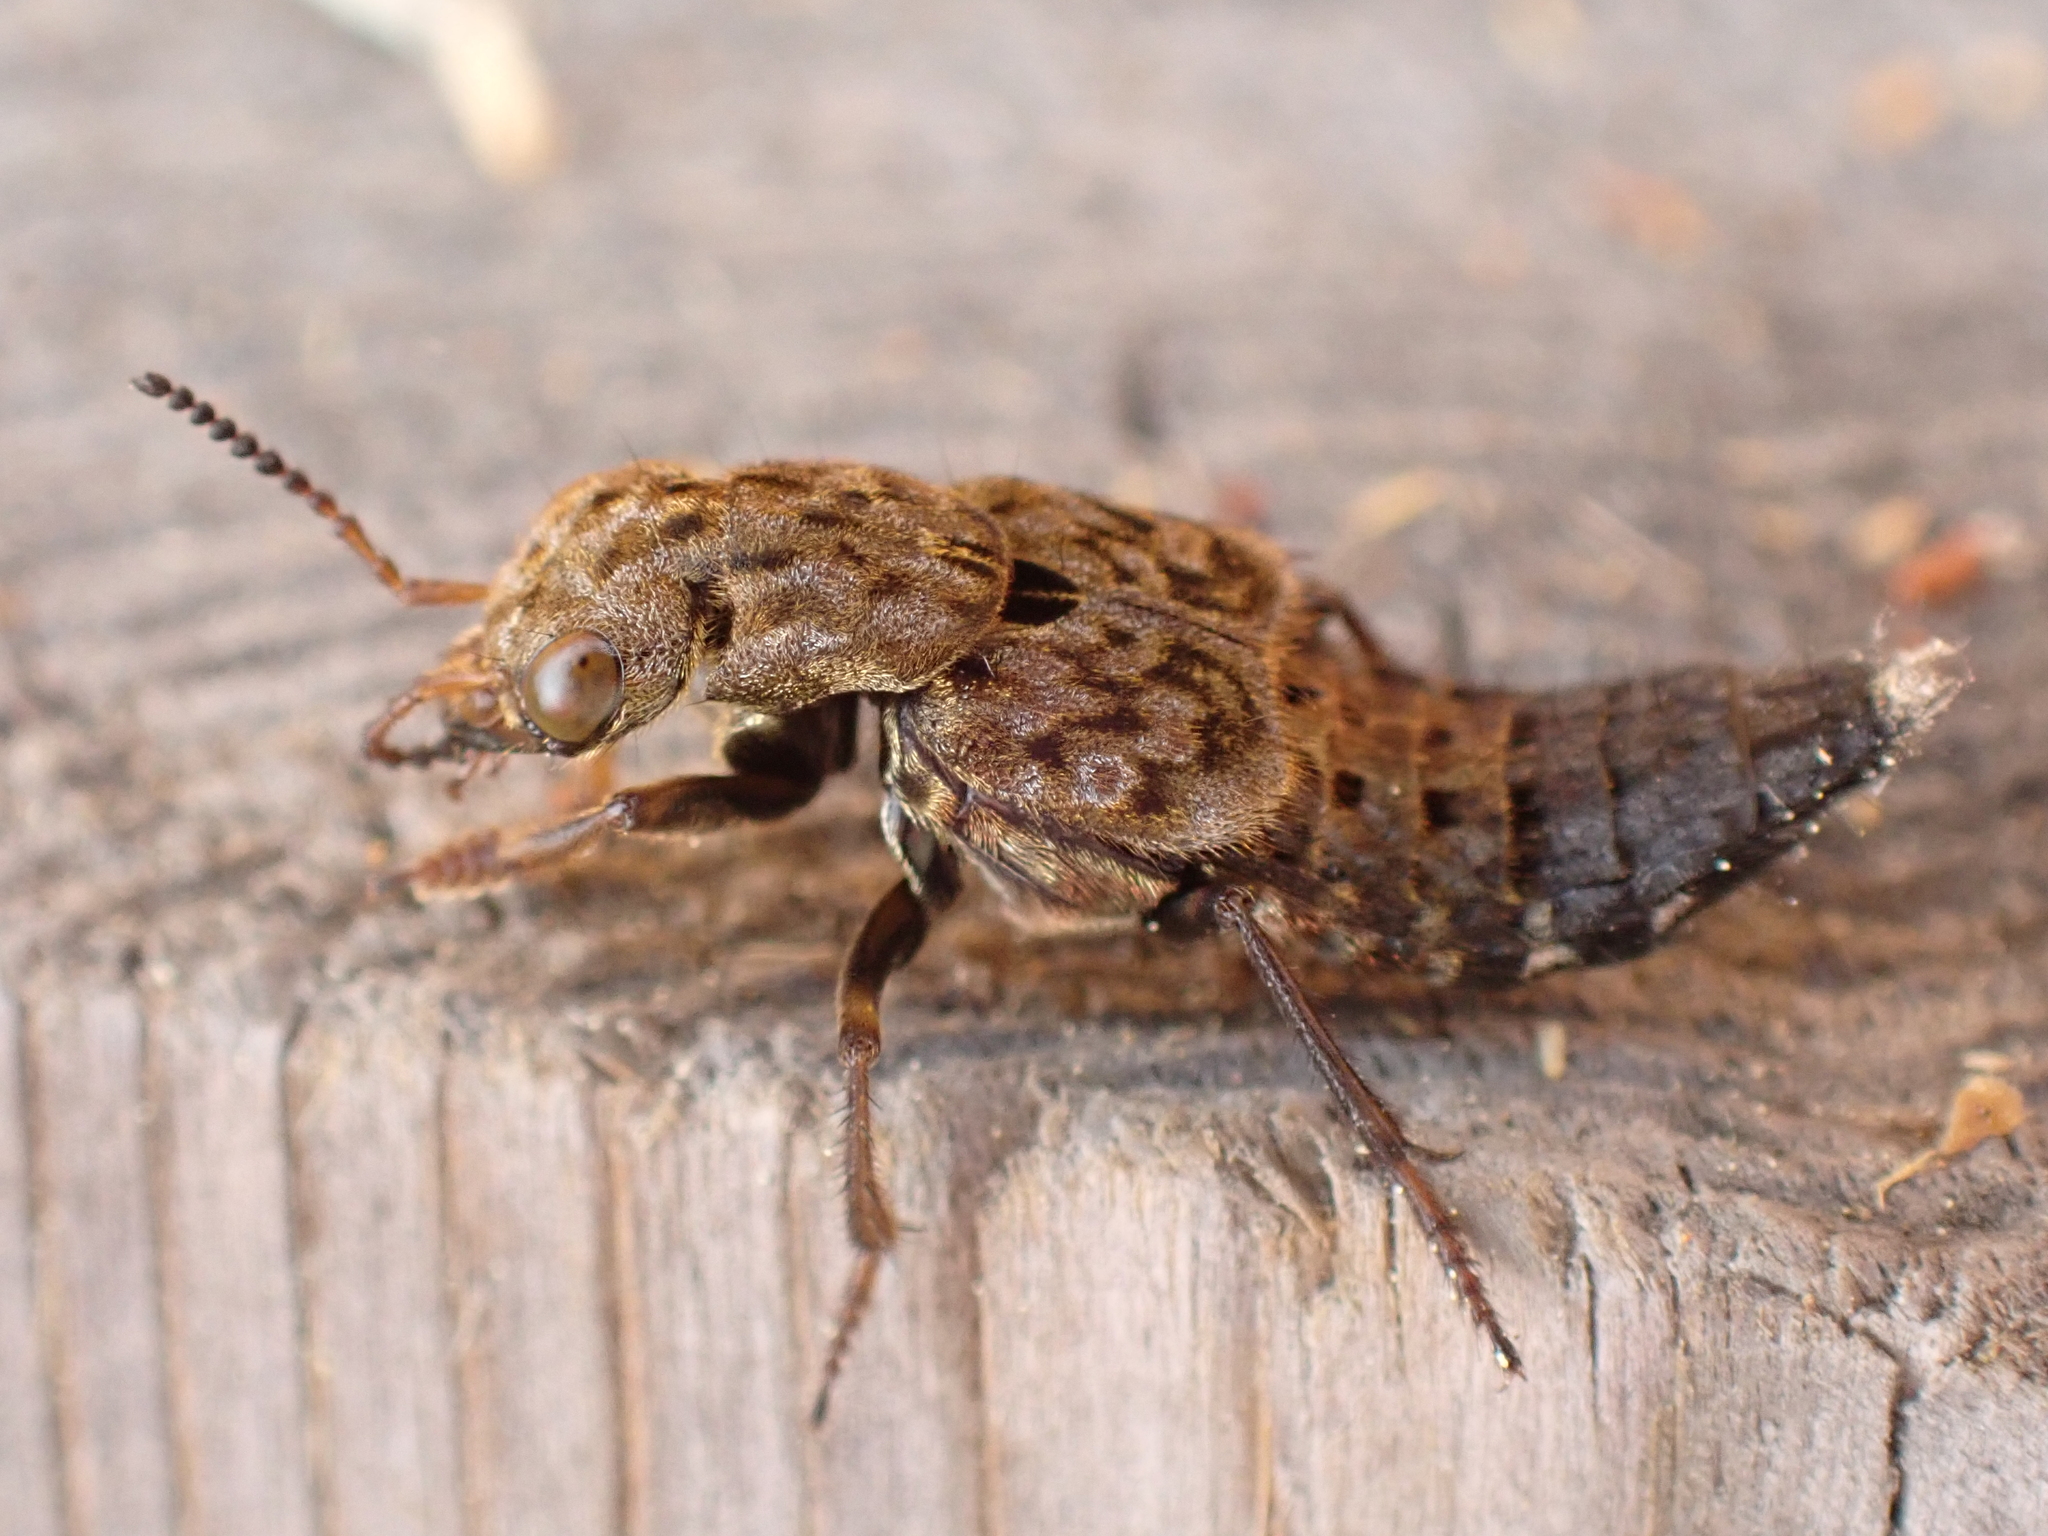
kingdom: Animalia
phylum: Arthropoda
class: Insecta
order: Coleoptera
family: Staphylinidae
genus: Ontholestes
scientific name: Ontholestes tessellatus
